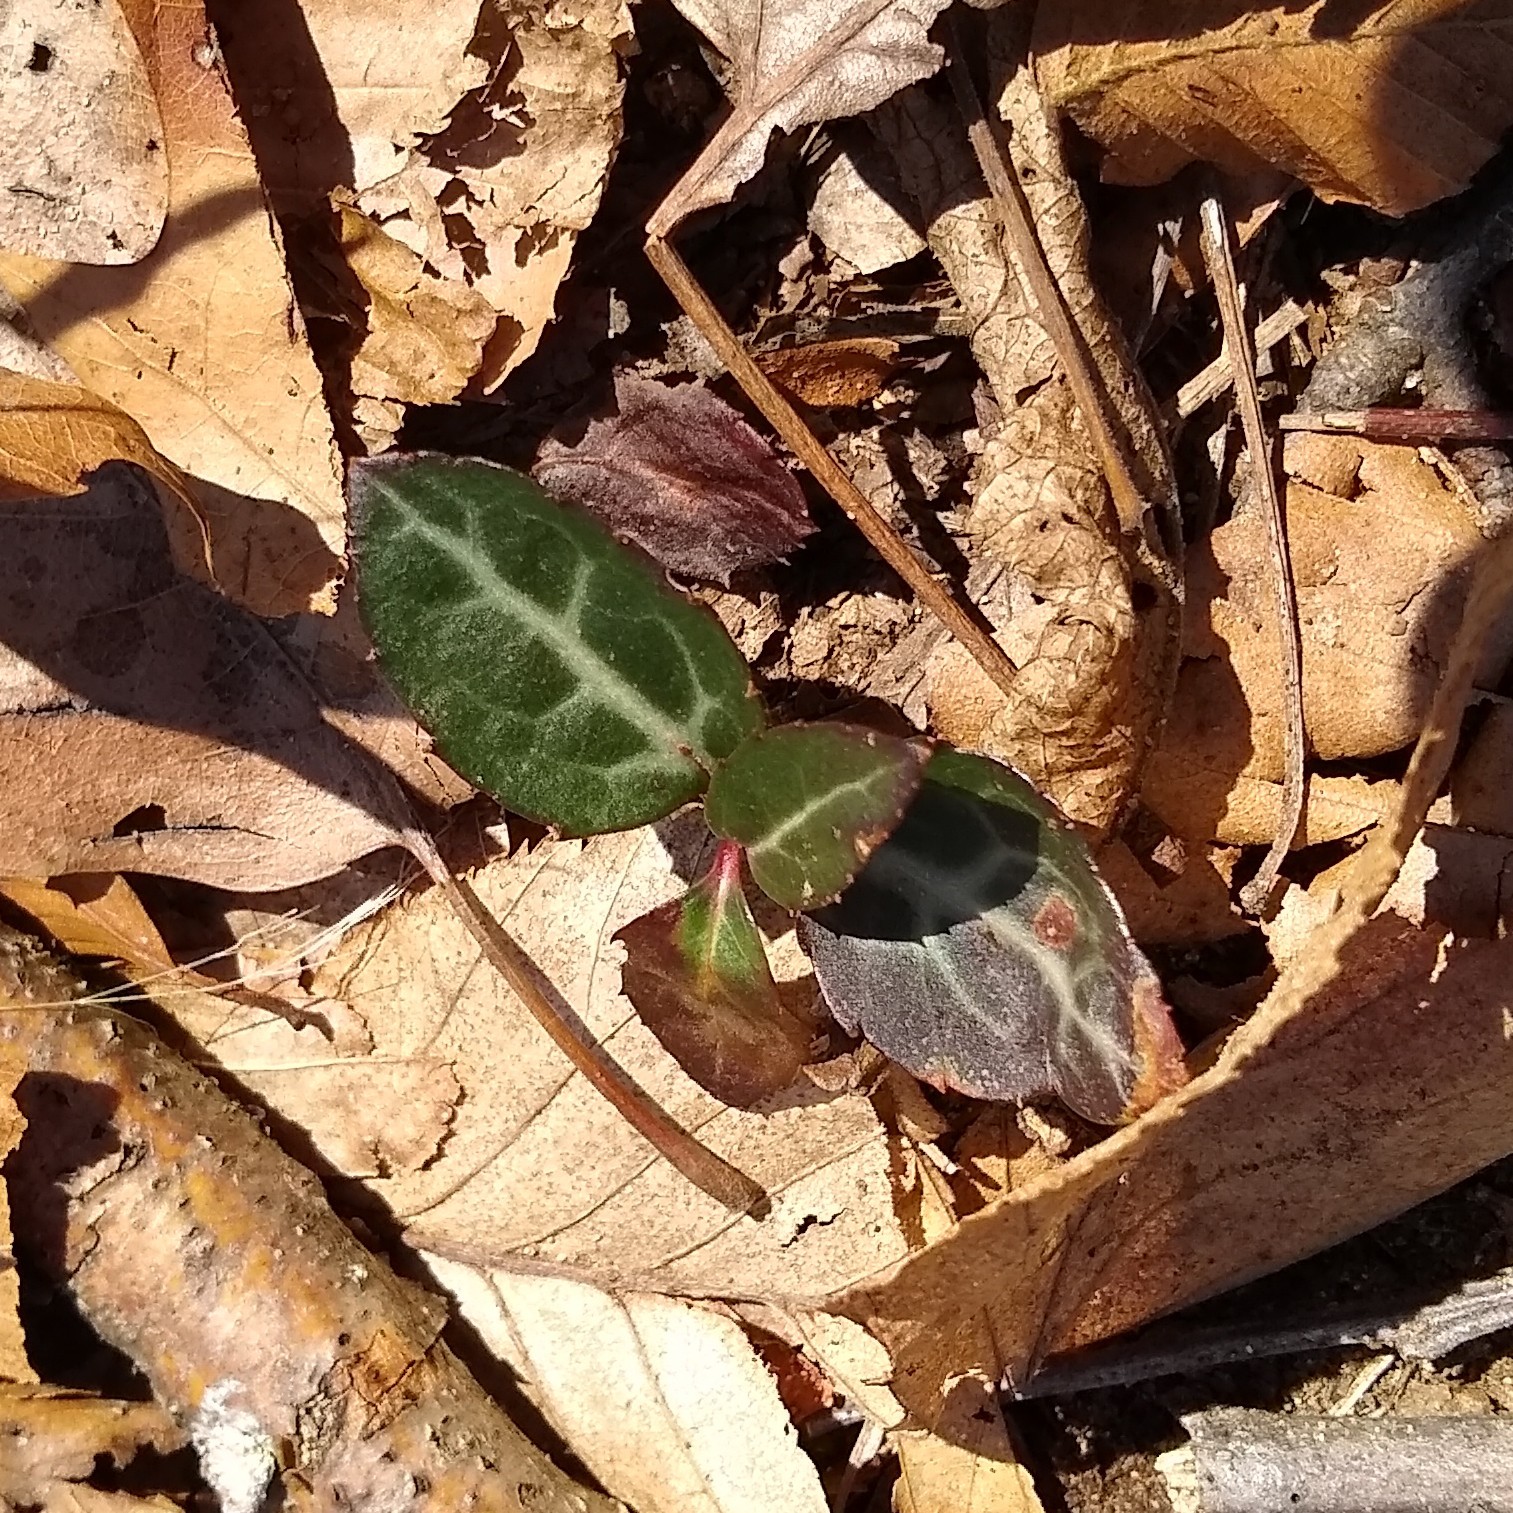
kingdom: Plantae
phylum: Tracheophyta
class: Magnoliopsida
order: Ericales
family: Ericaceae
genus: Chimaphila
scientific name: Chimaphila maculata
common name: Spotted pipsissewa
